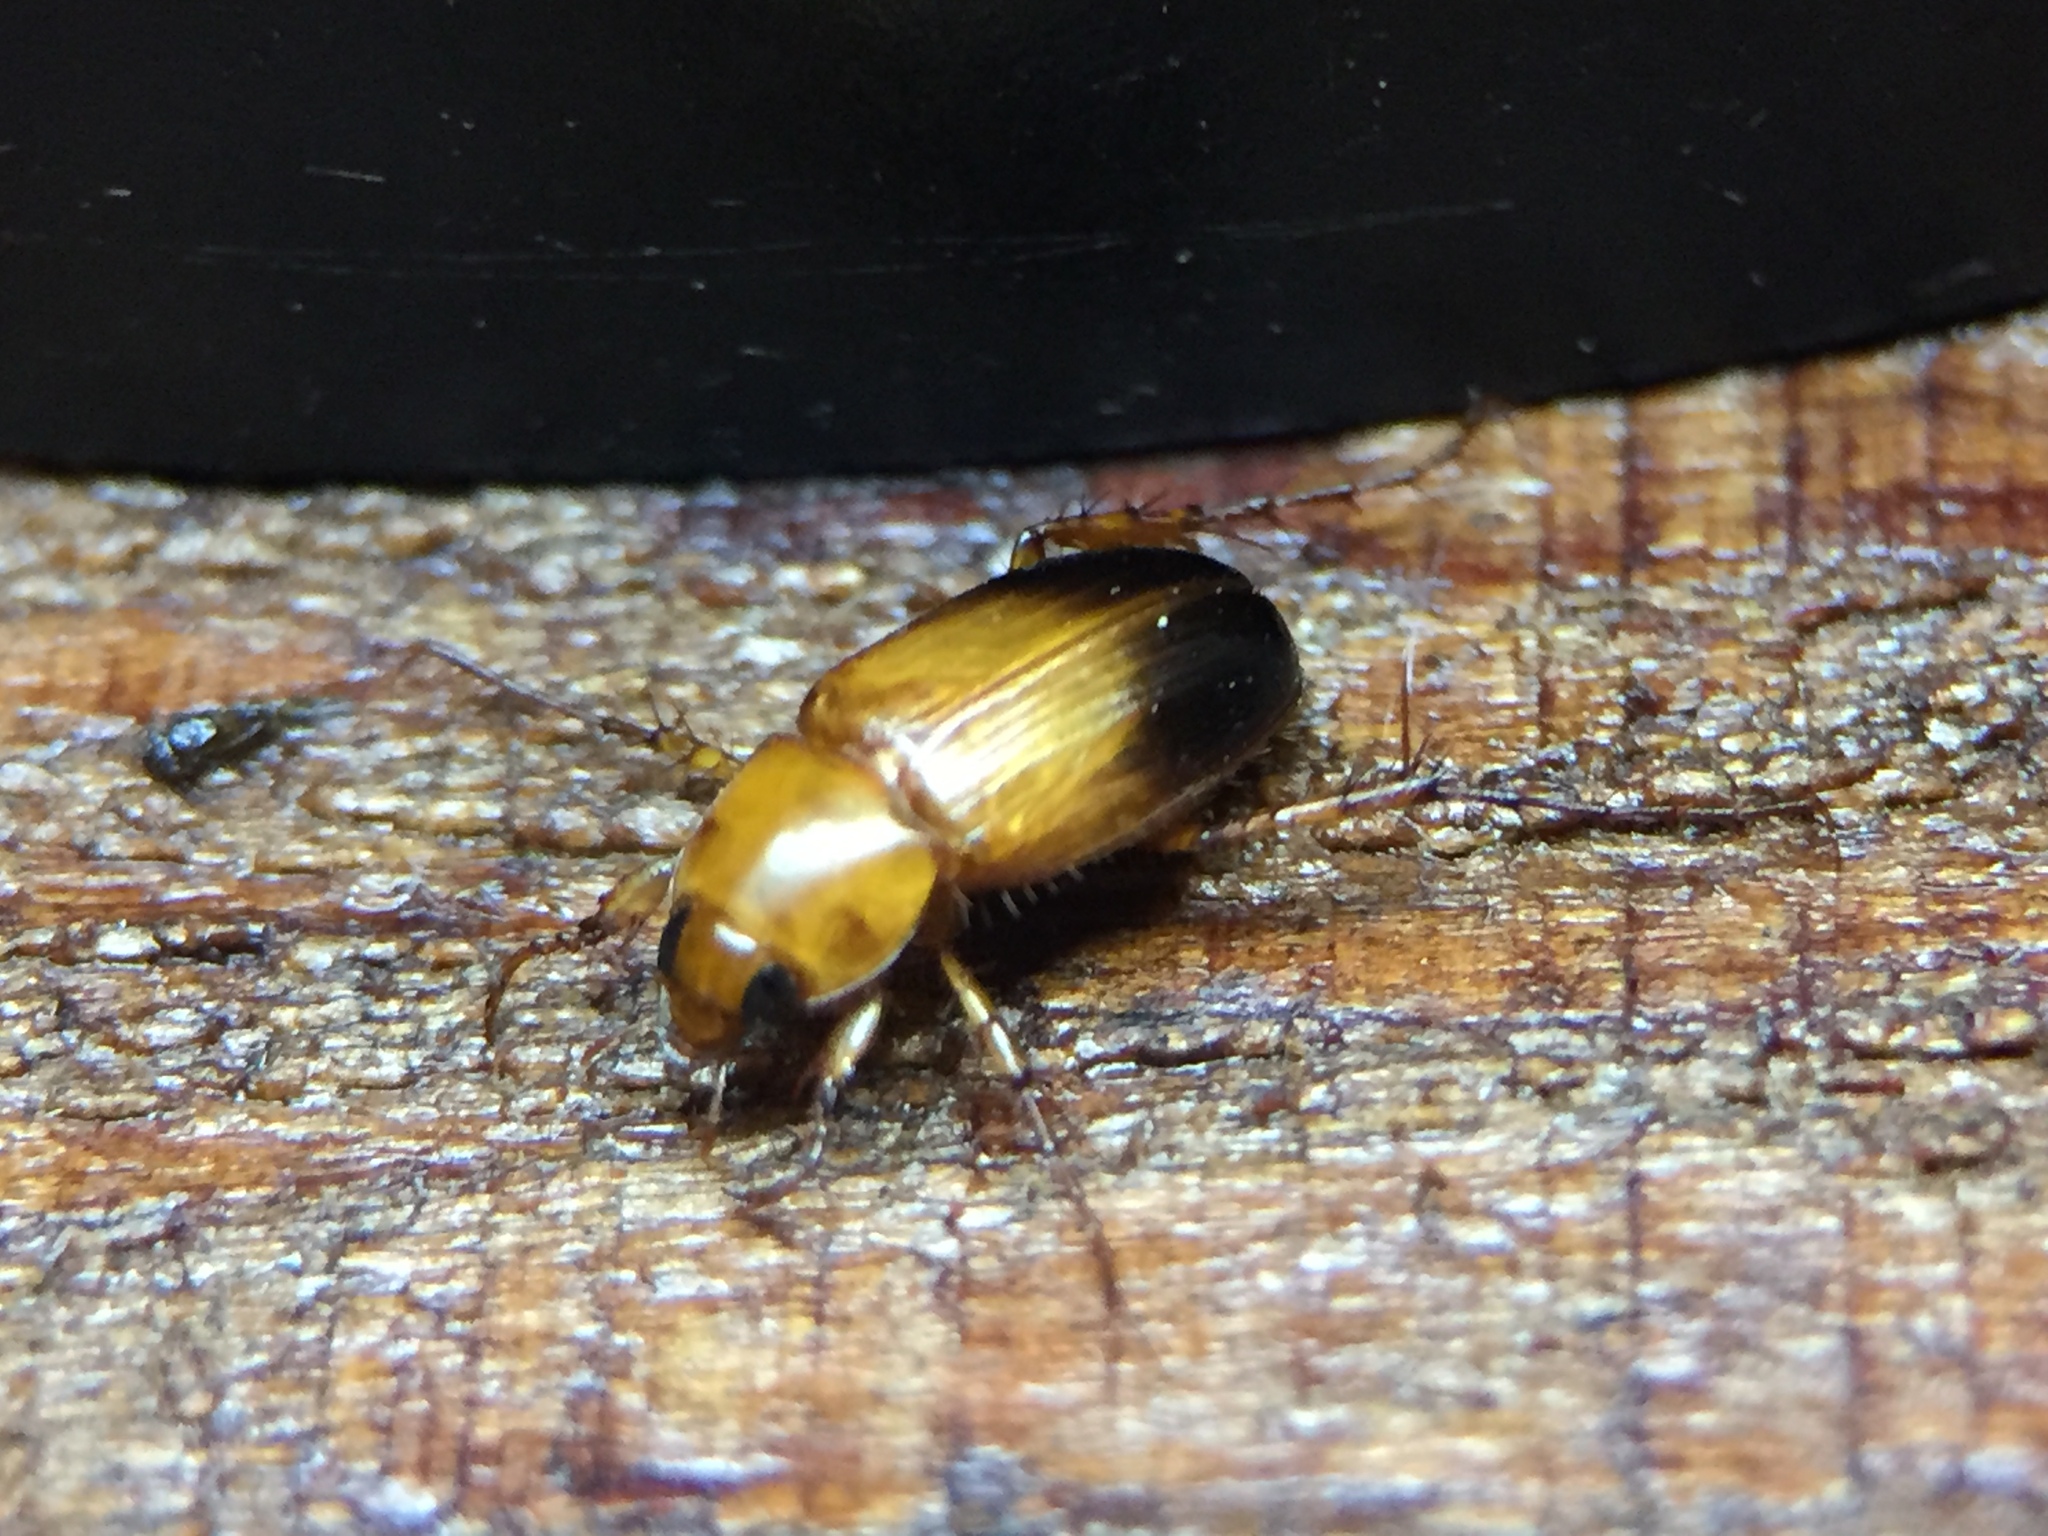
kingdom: Animalia
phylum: Arthropoda
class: Insecta
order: Coleoptera
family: Scarabaeidae
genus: Phyllotocus
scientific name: Phyllotocus macleayi
